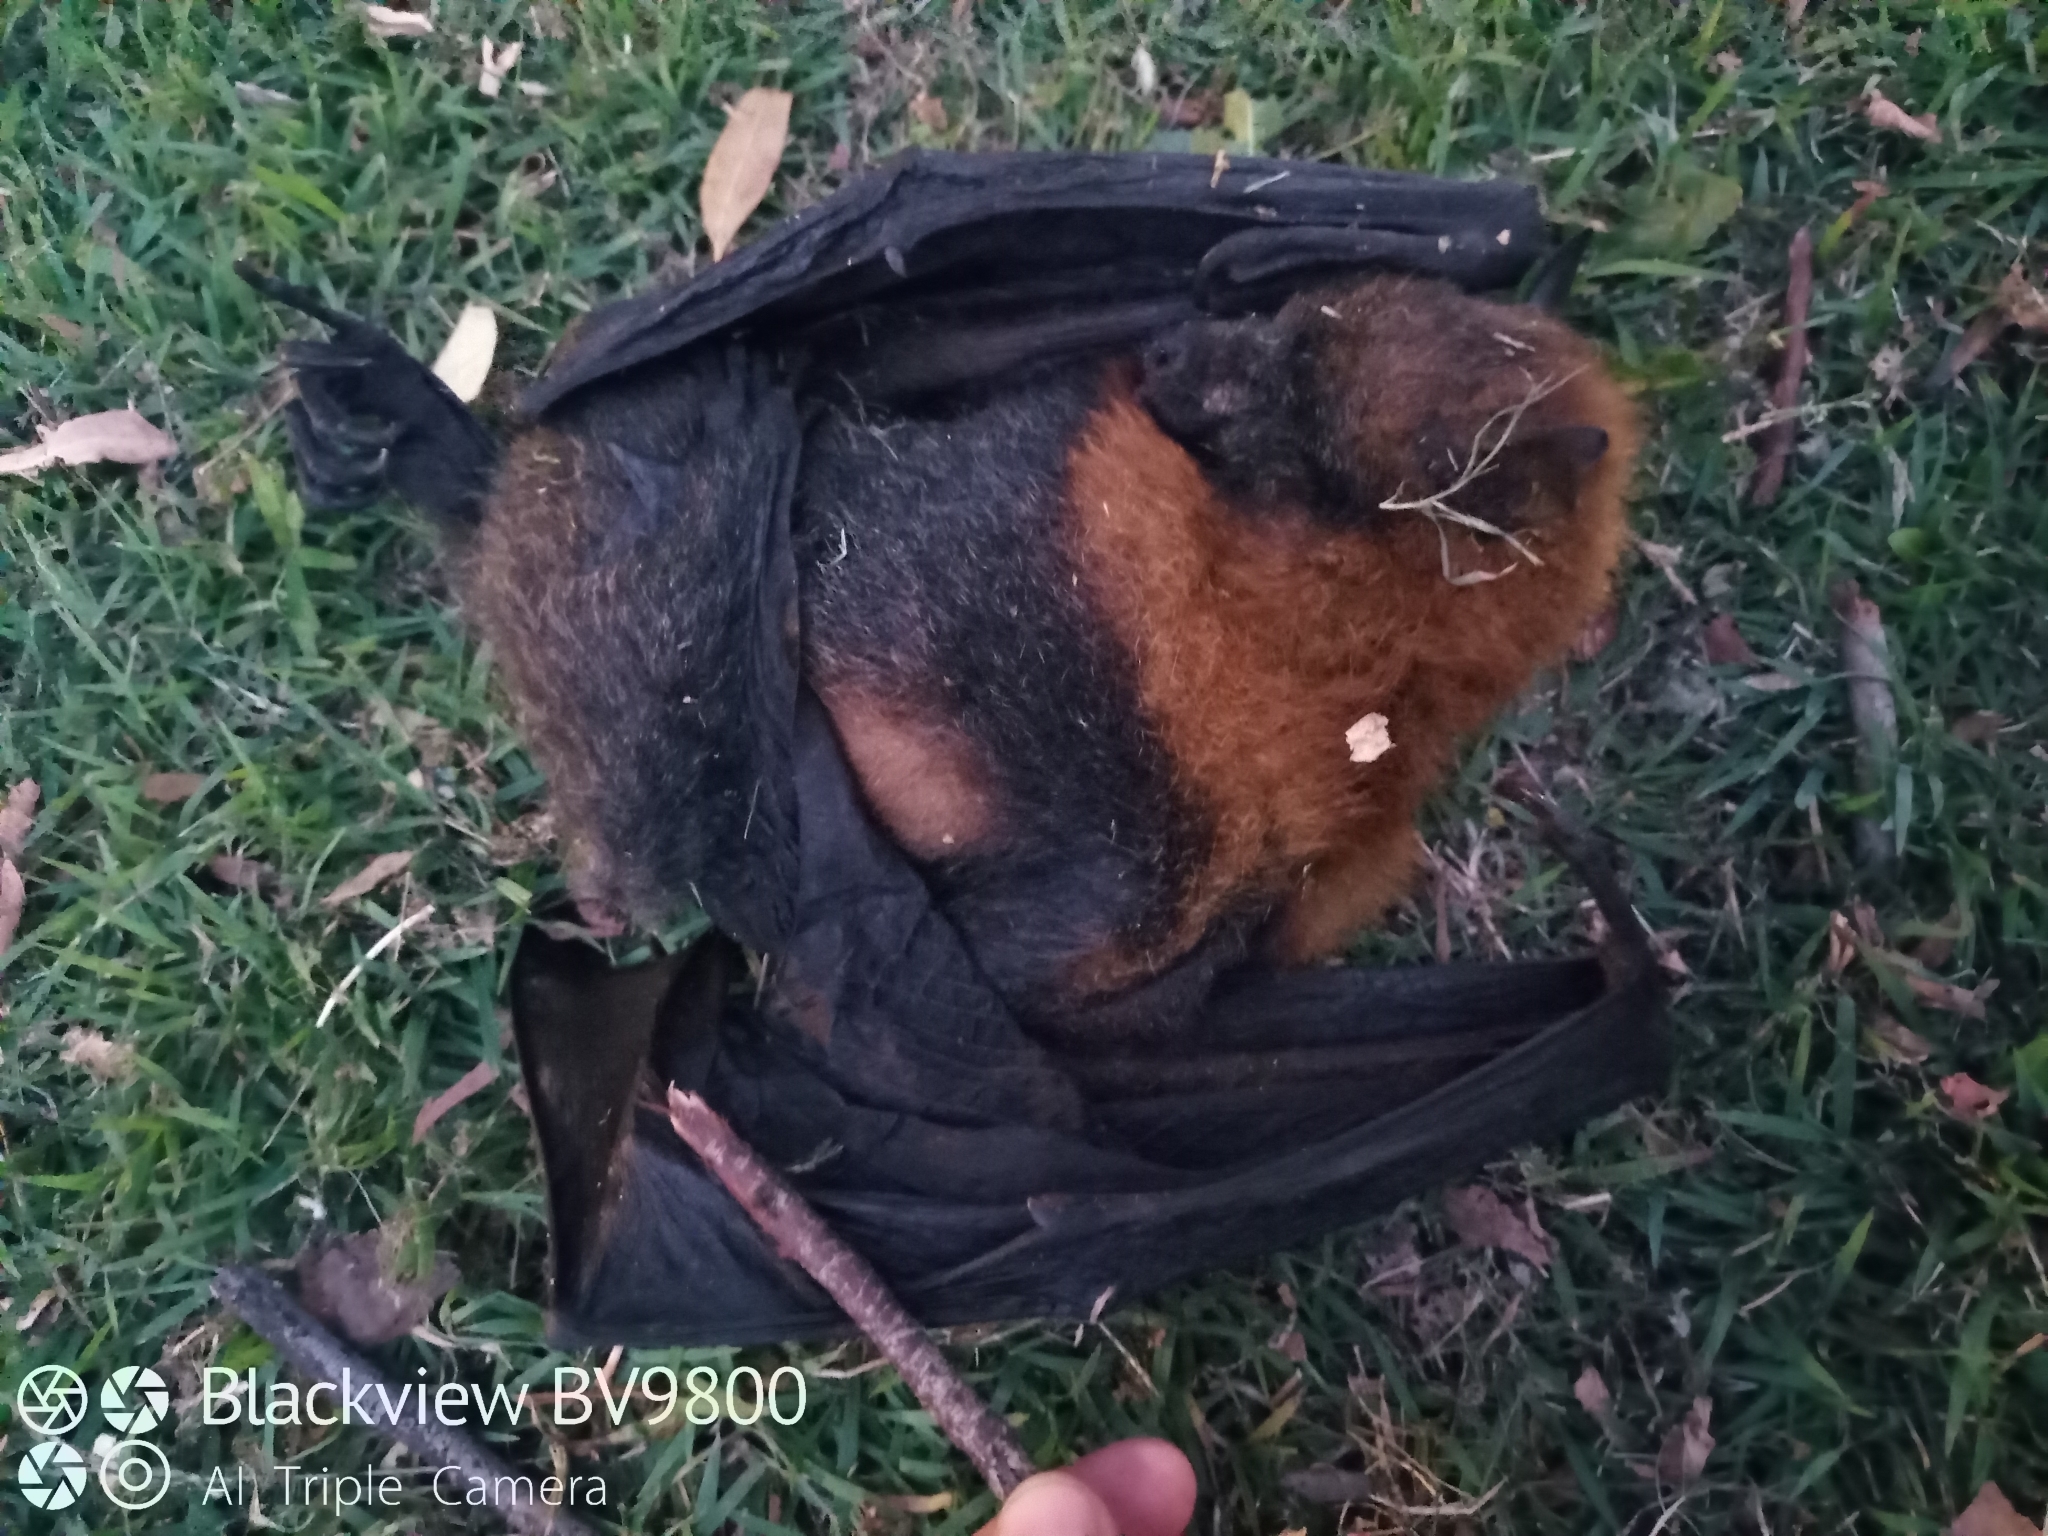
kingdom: Animalia
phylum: Chordata
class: Mammalia
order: Chiroptera
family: Pteropodidae
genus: Pteropus
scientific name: Pteropus poliocephalus
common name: Gray-headed flying fox
